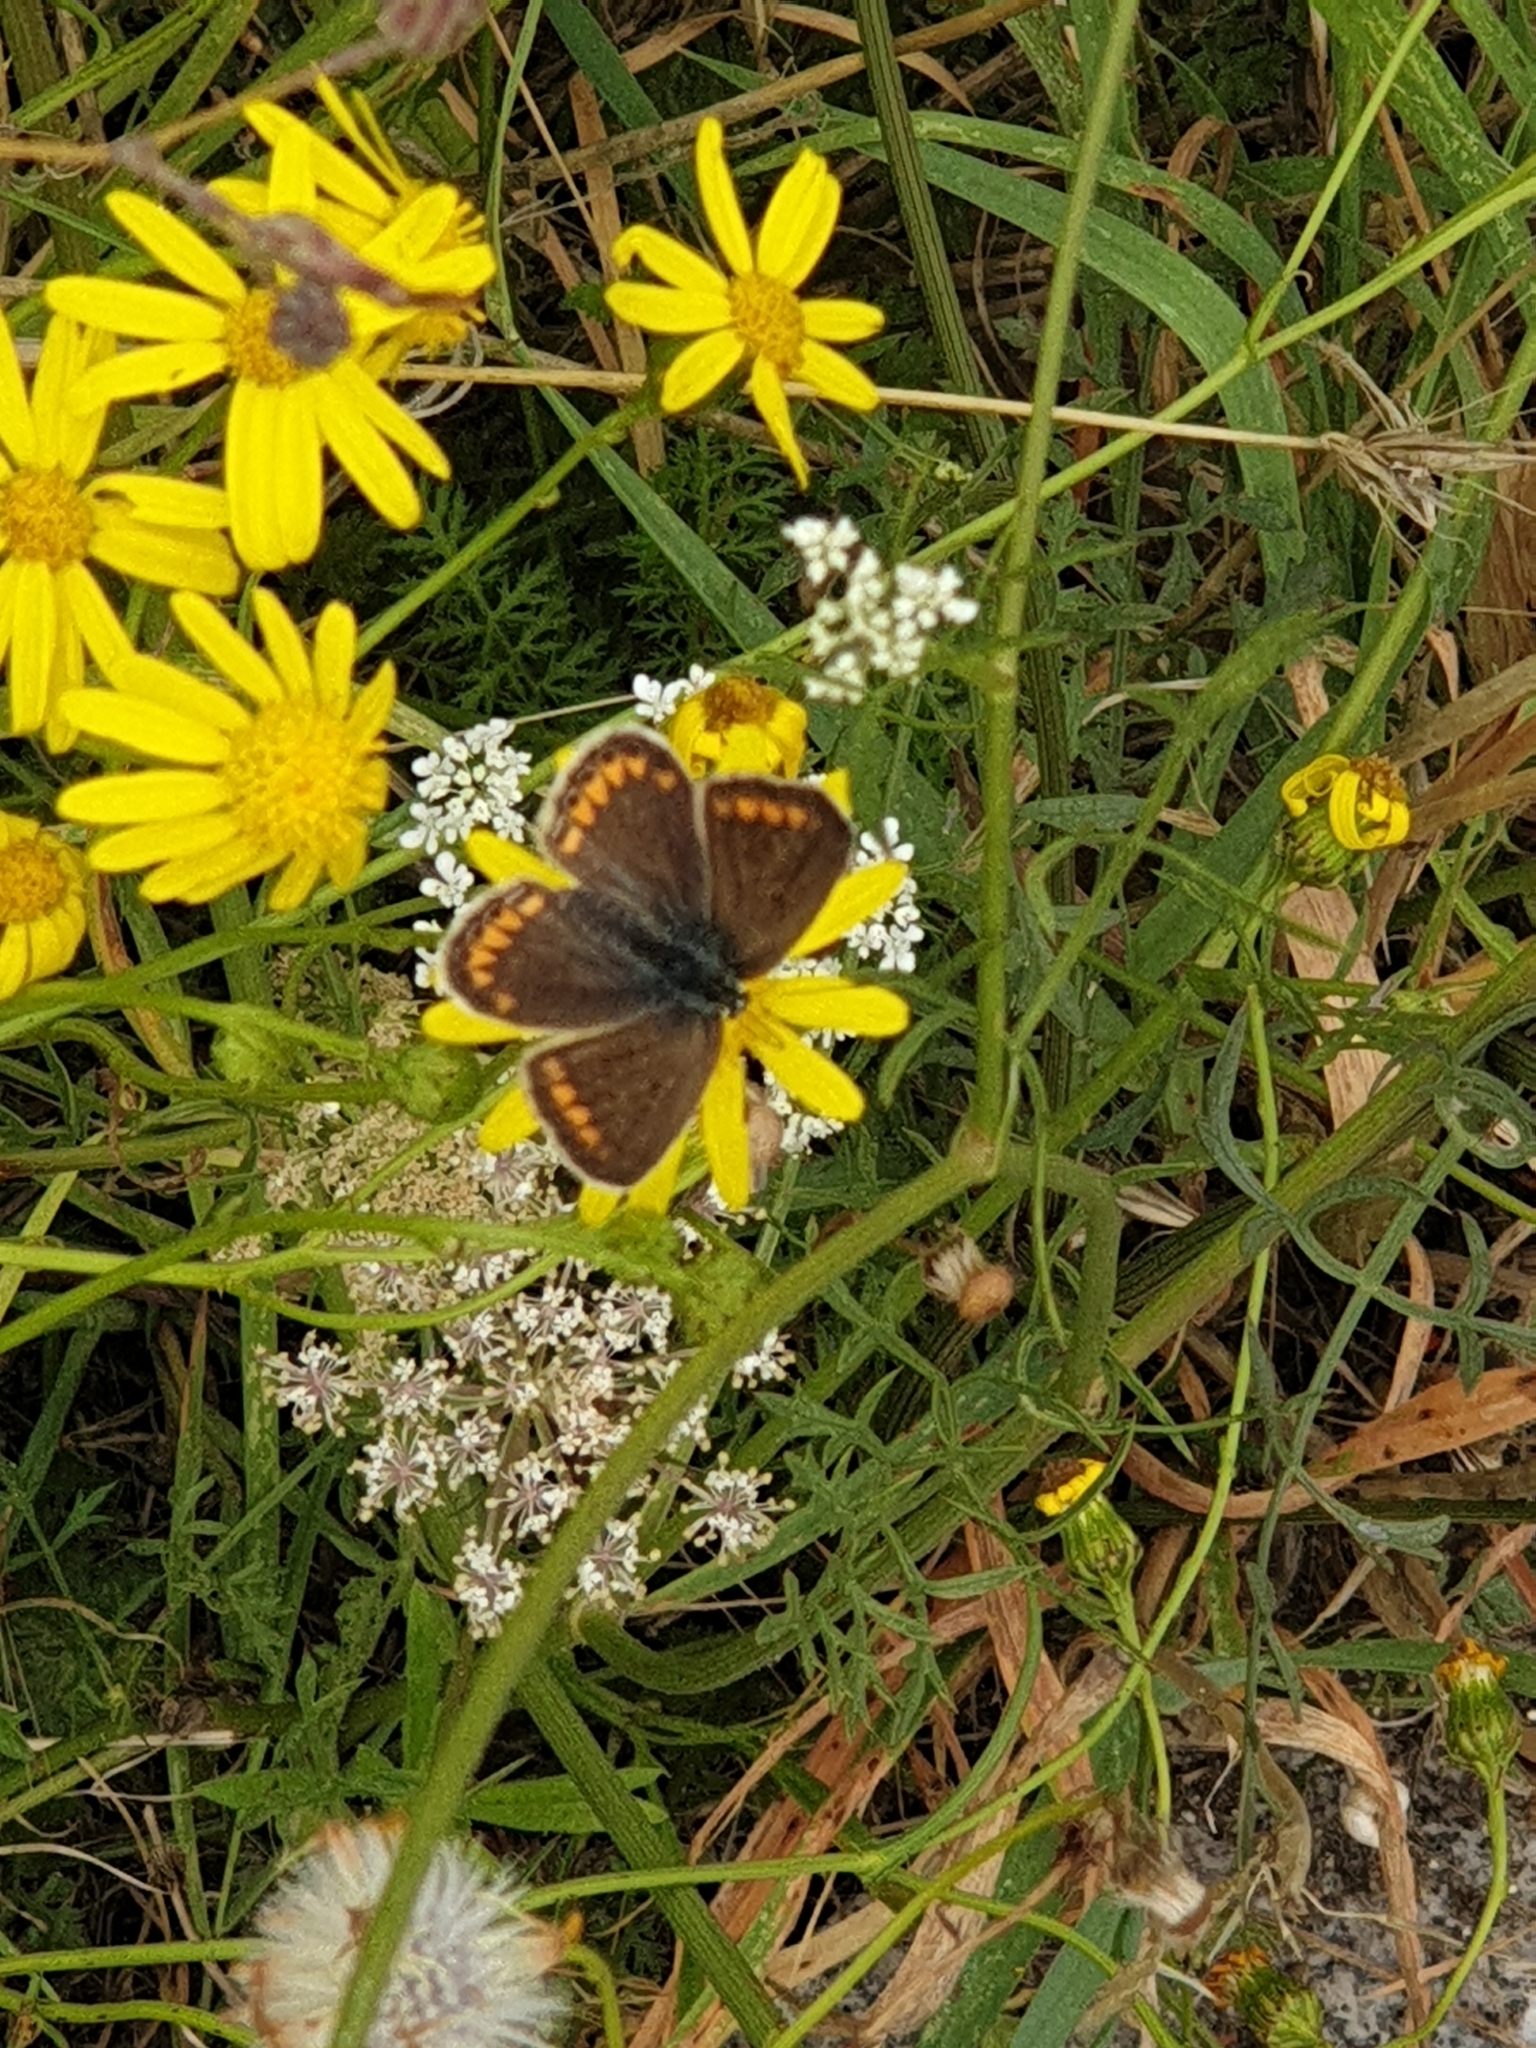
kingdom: Animalia
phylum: Arthropoda
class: Insecta
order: Lepidoptera
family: Lycaenidae
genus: Polyommatus
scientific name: Polyommatus icarus
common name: Common blue
